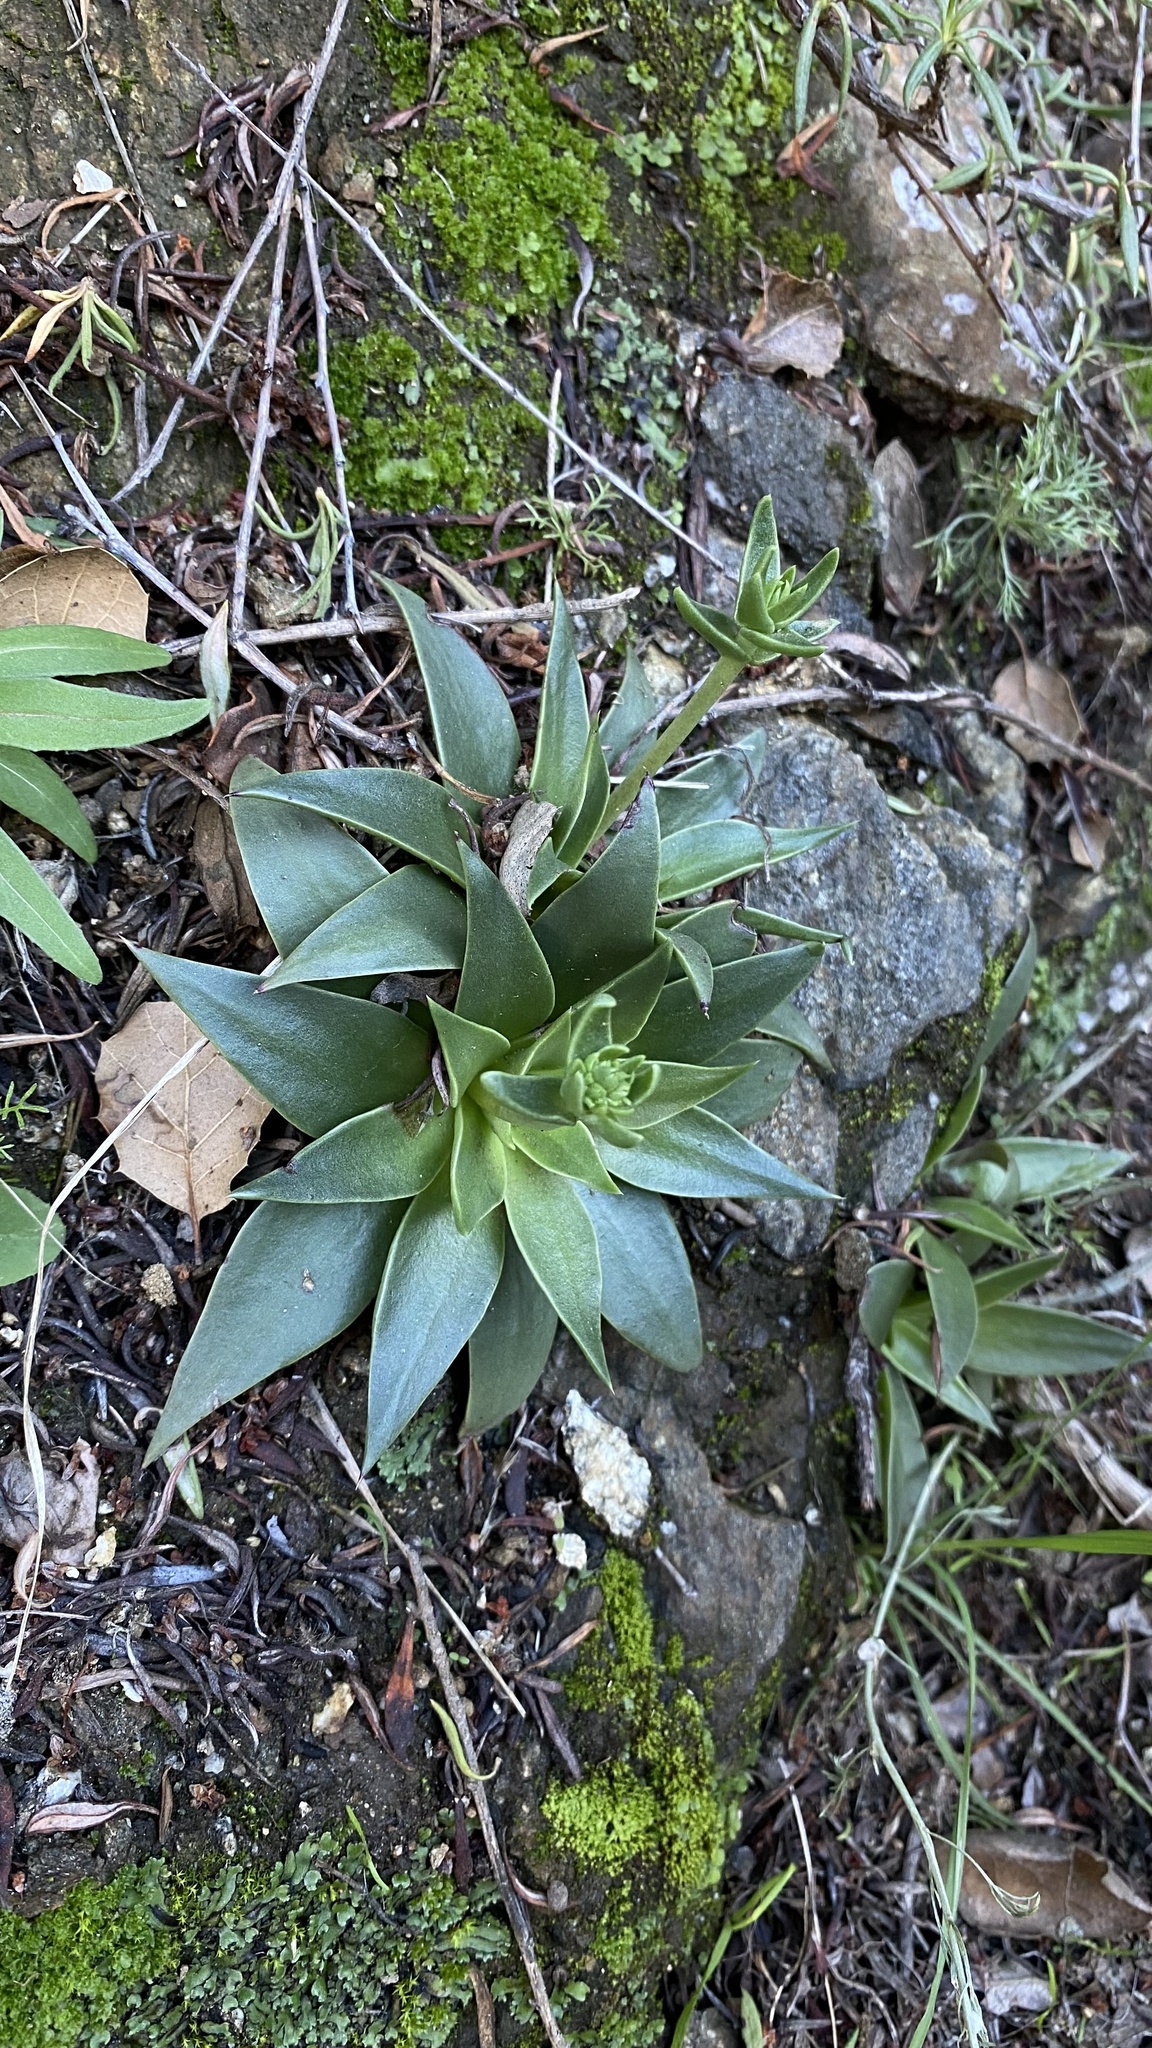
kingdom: Plantae
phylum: Tracheophyta
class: Magnoliopsida
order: Saxifragales
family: Crassulaceae
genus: Dudleya
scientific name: Dudleya lanceolata
